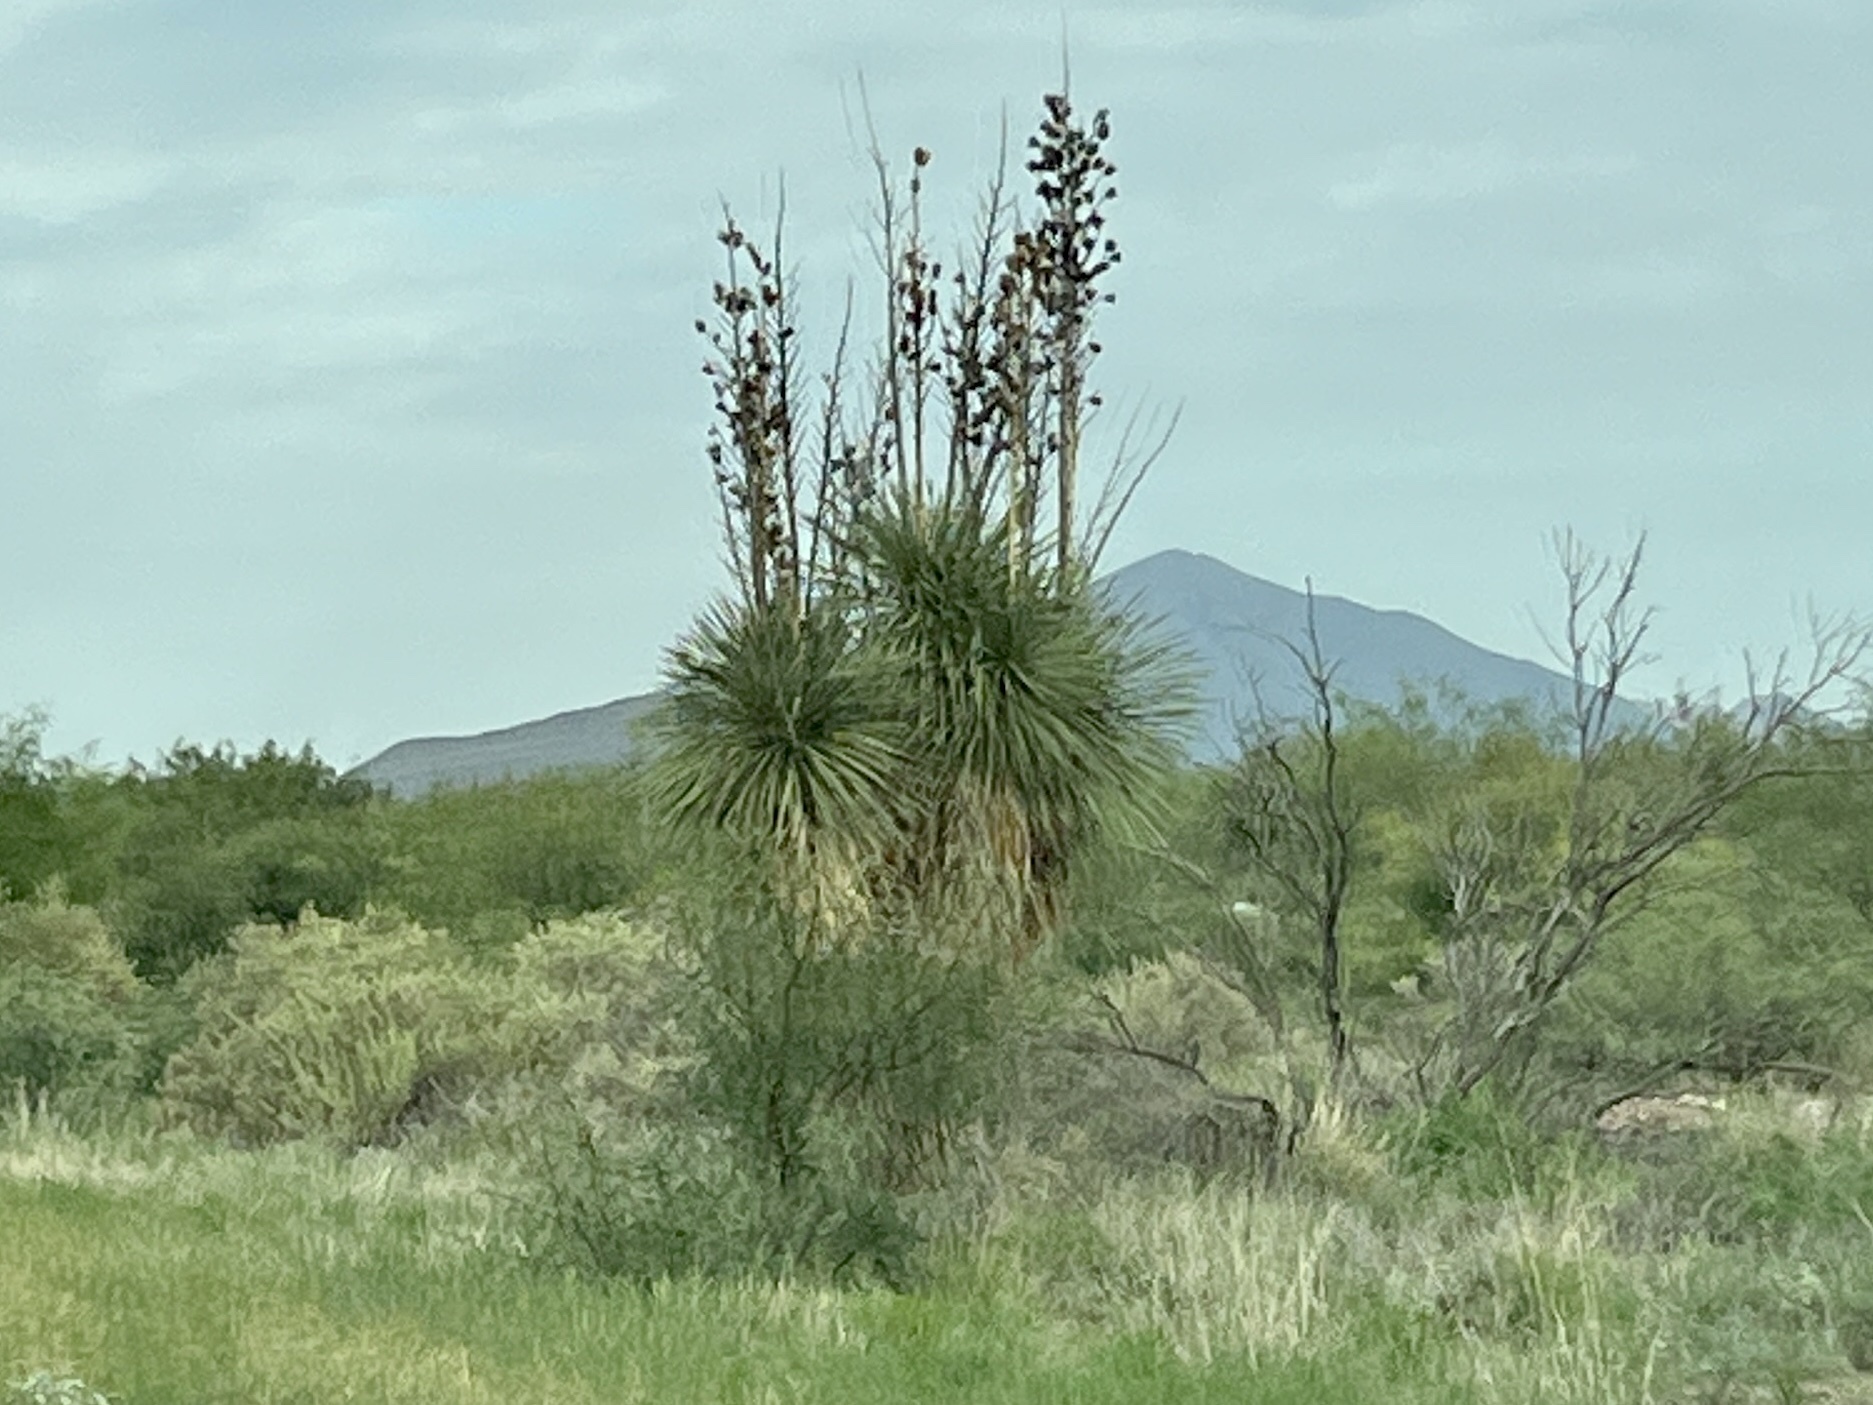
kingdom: Plantae
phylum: Tracheophyta
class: Liliopsida
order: Asparagales
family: Asparagaceae
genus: Yucca
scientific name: Yucca elata
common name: Palmella
